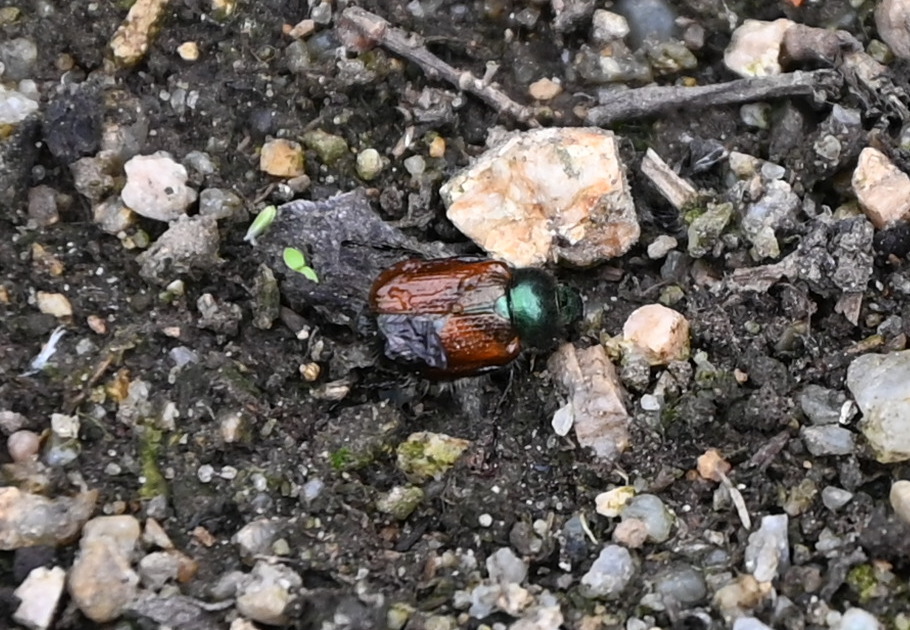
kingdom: Animalia
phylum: Arthropoda
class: Insecta
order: Coleoptera
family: Scarabaeidae
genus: Phyllopertha
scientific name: Phyllopertha horticola
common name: Garden chafer
